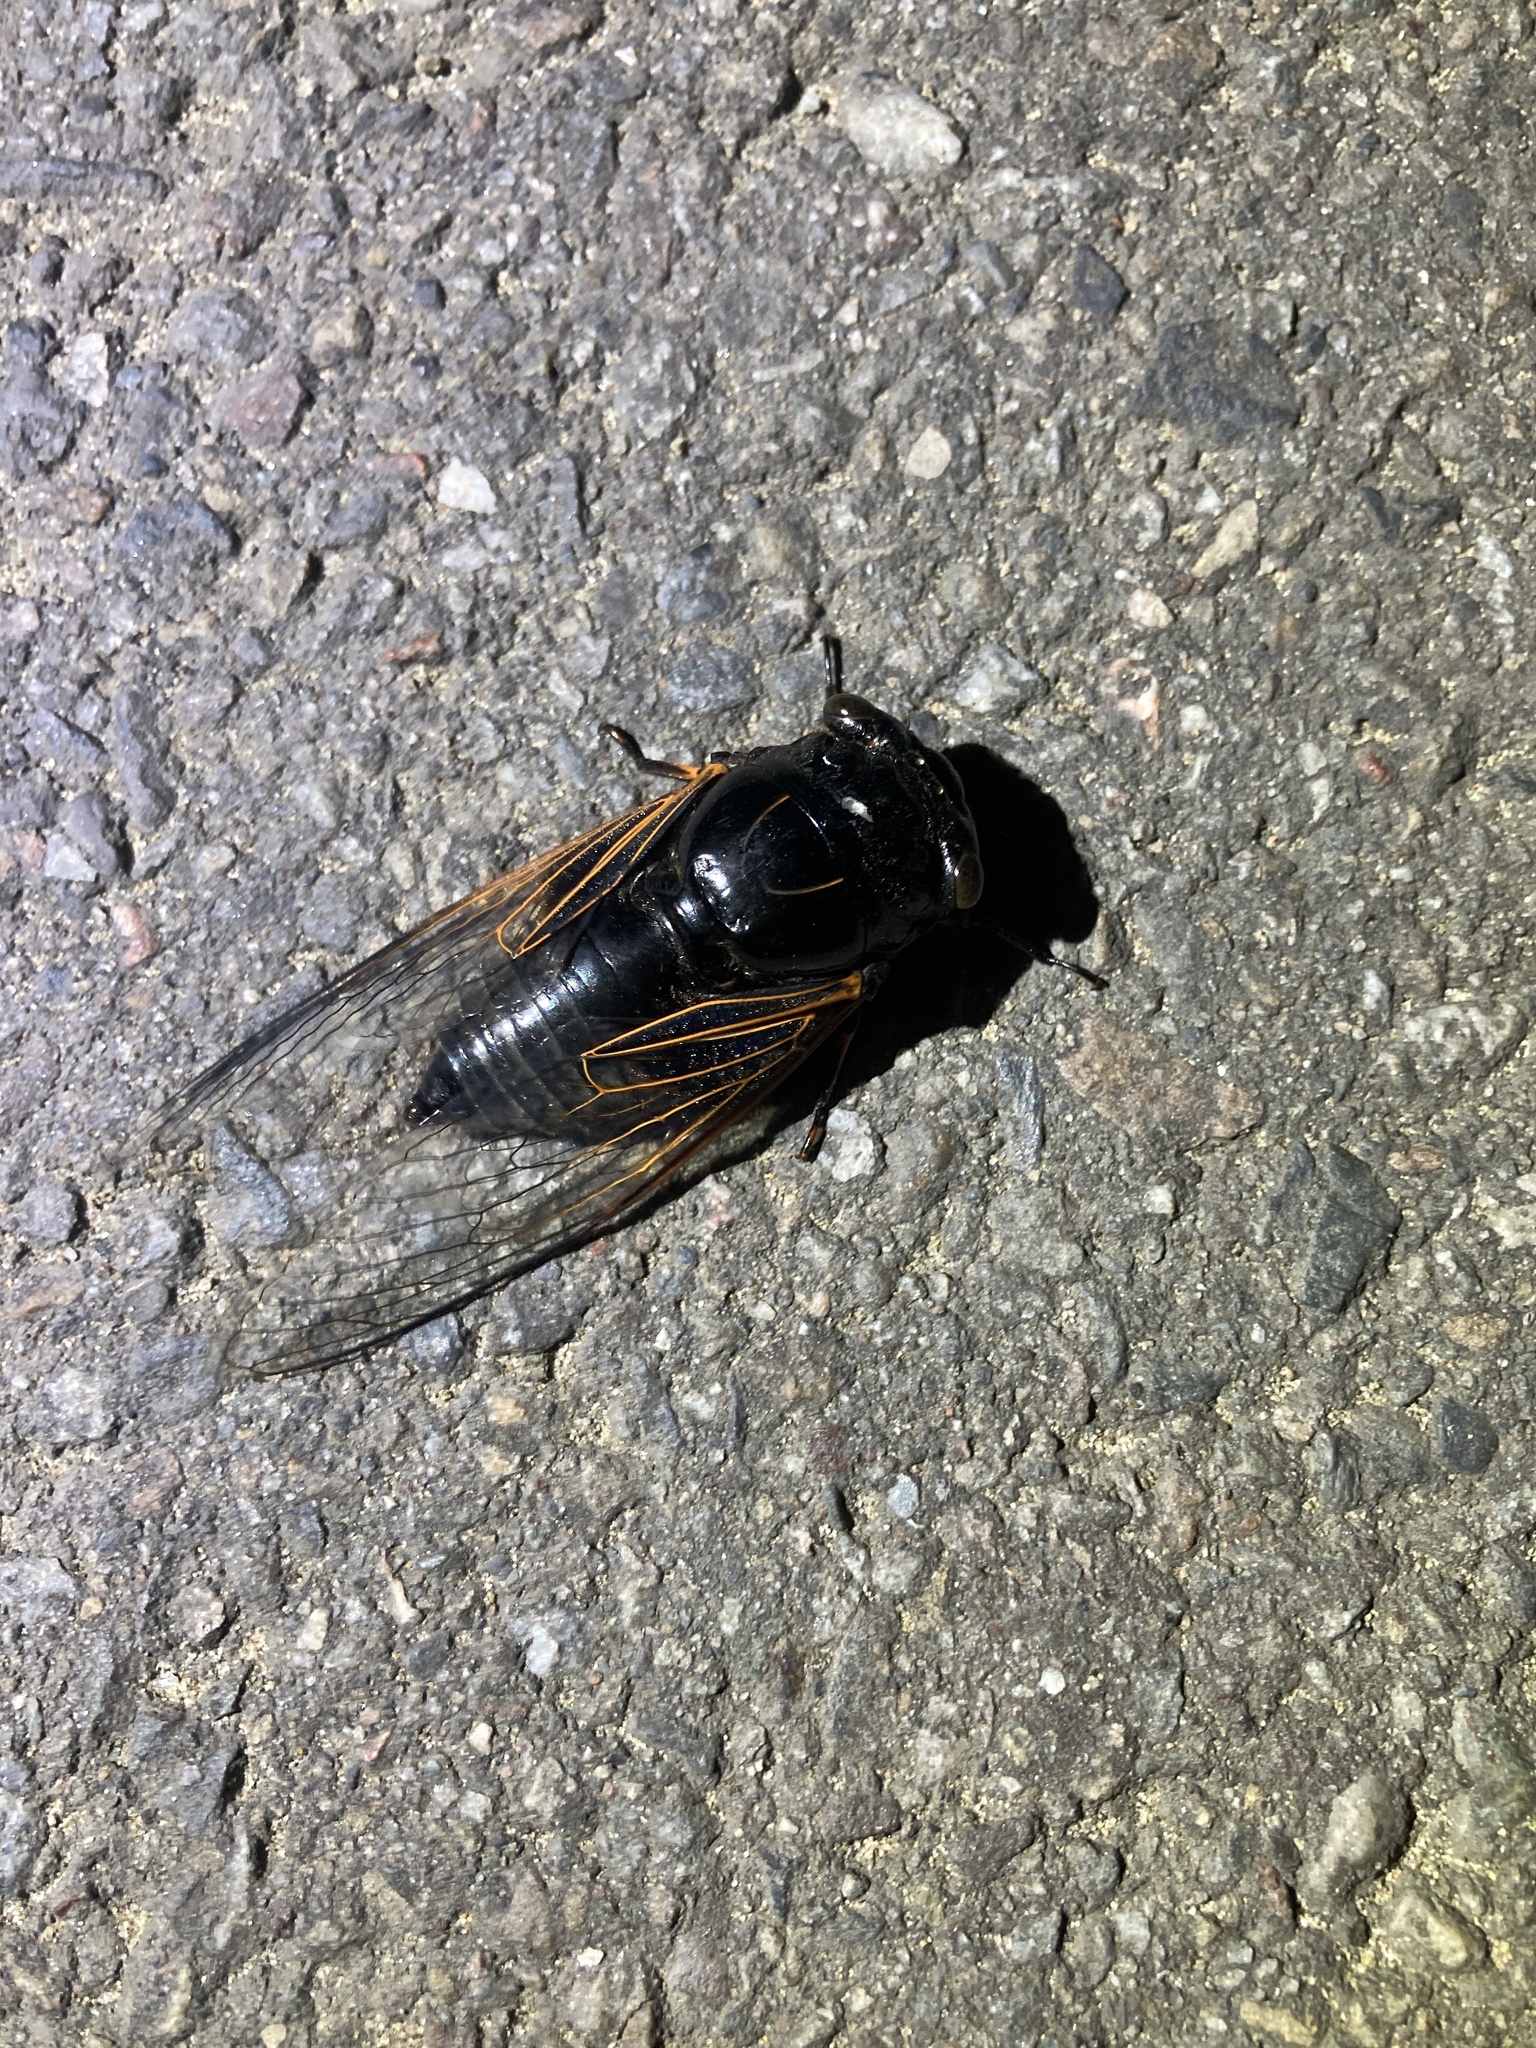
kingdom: Animalia
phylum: Arthropoda
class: Insecta
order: Hemiptera
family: Cicadidae
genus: Cryptotympana
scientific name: Cryptotympana atrata
